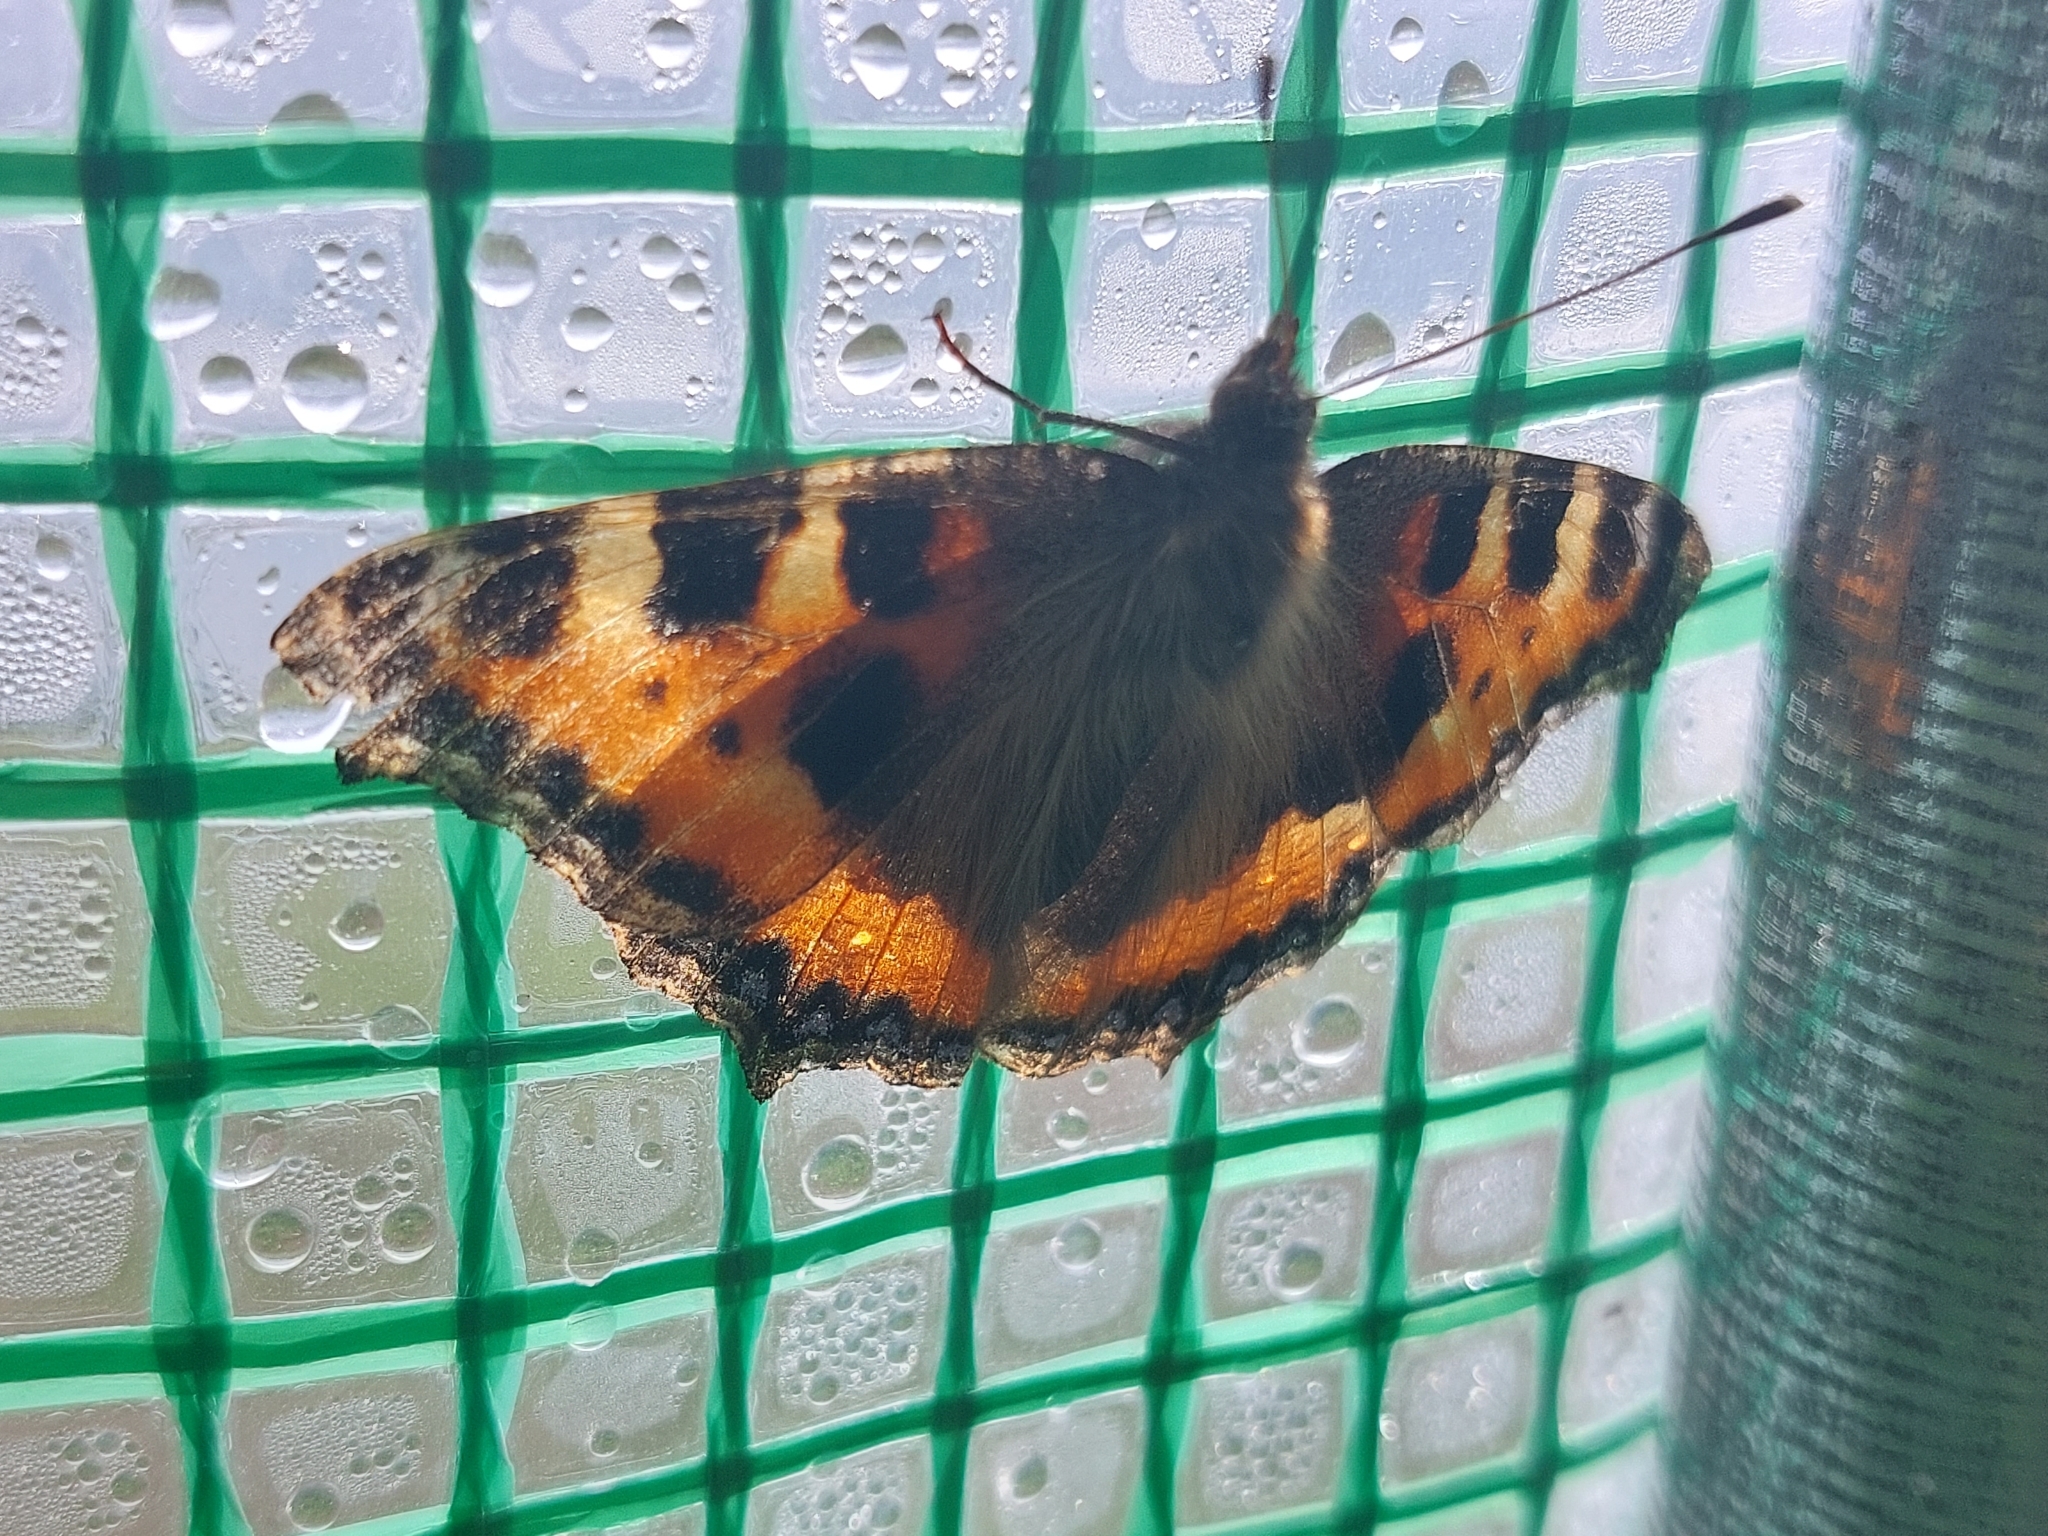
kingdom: Animalia
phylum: Arthropoda
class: Insecta
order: Lepidoptera
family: Nymphalidae
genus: Aglais
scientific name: Aglais urticae
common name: Small tortoiseshell
